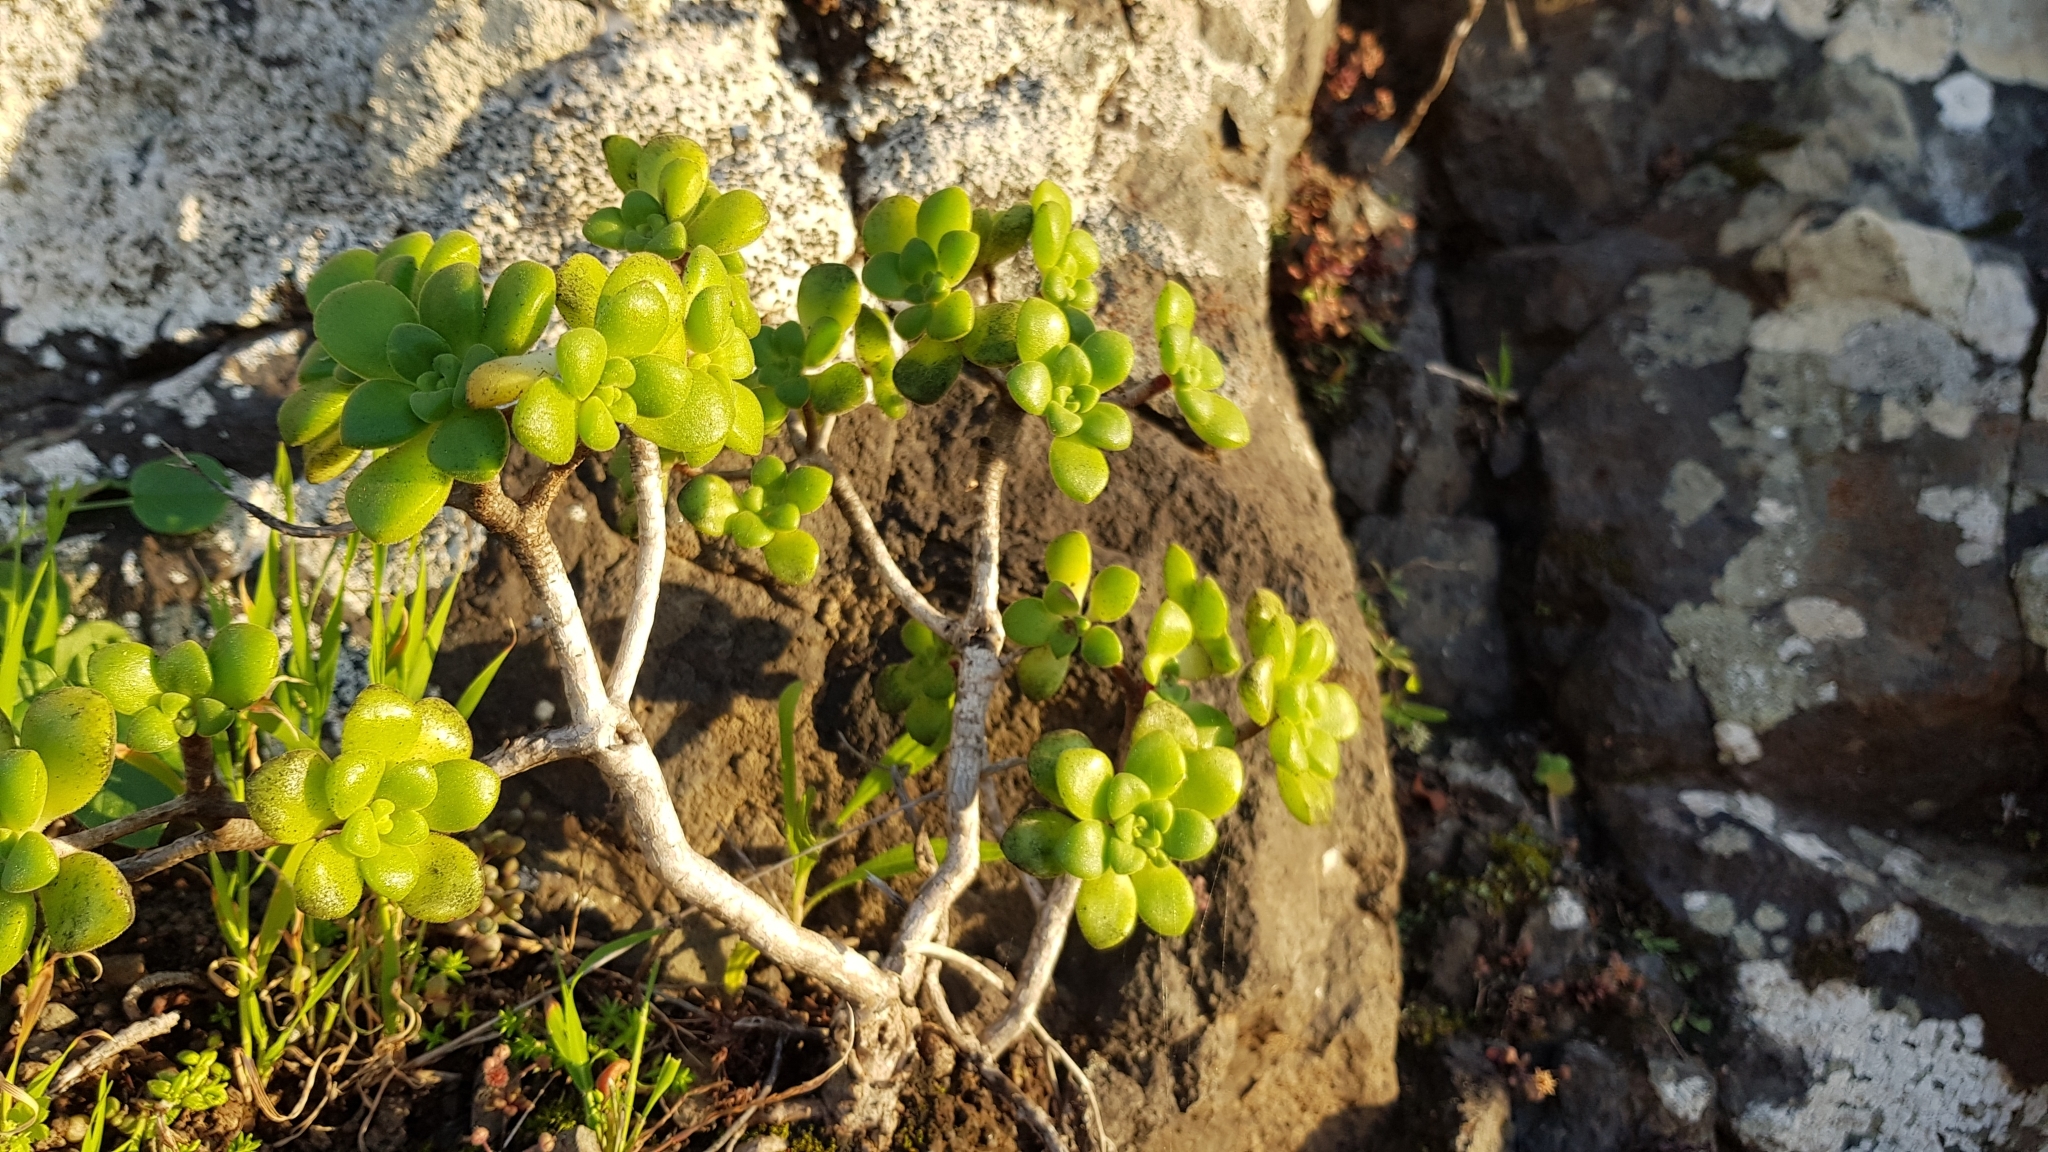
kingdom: Plantae
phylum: Tracheophyta
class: Magnoliopsida
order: Saxifragales
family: Crassulaceae
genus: Aeonium
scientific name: Aeonium lindleyi
